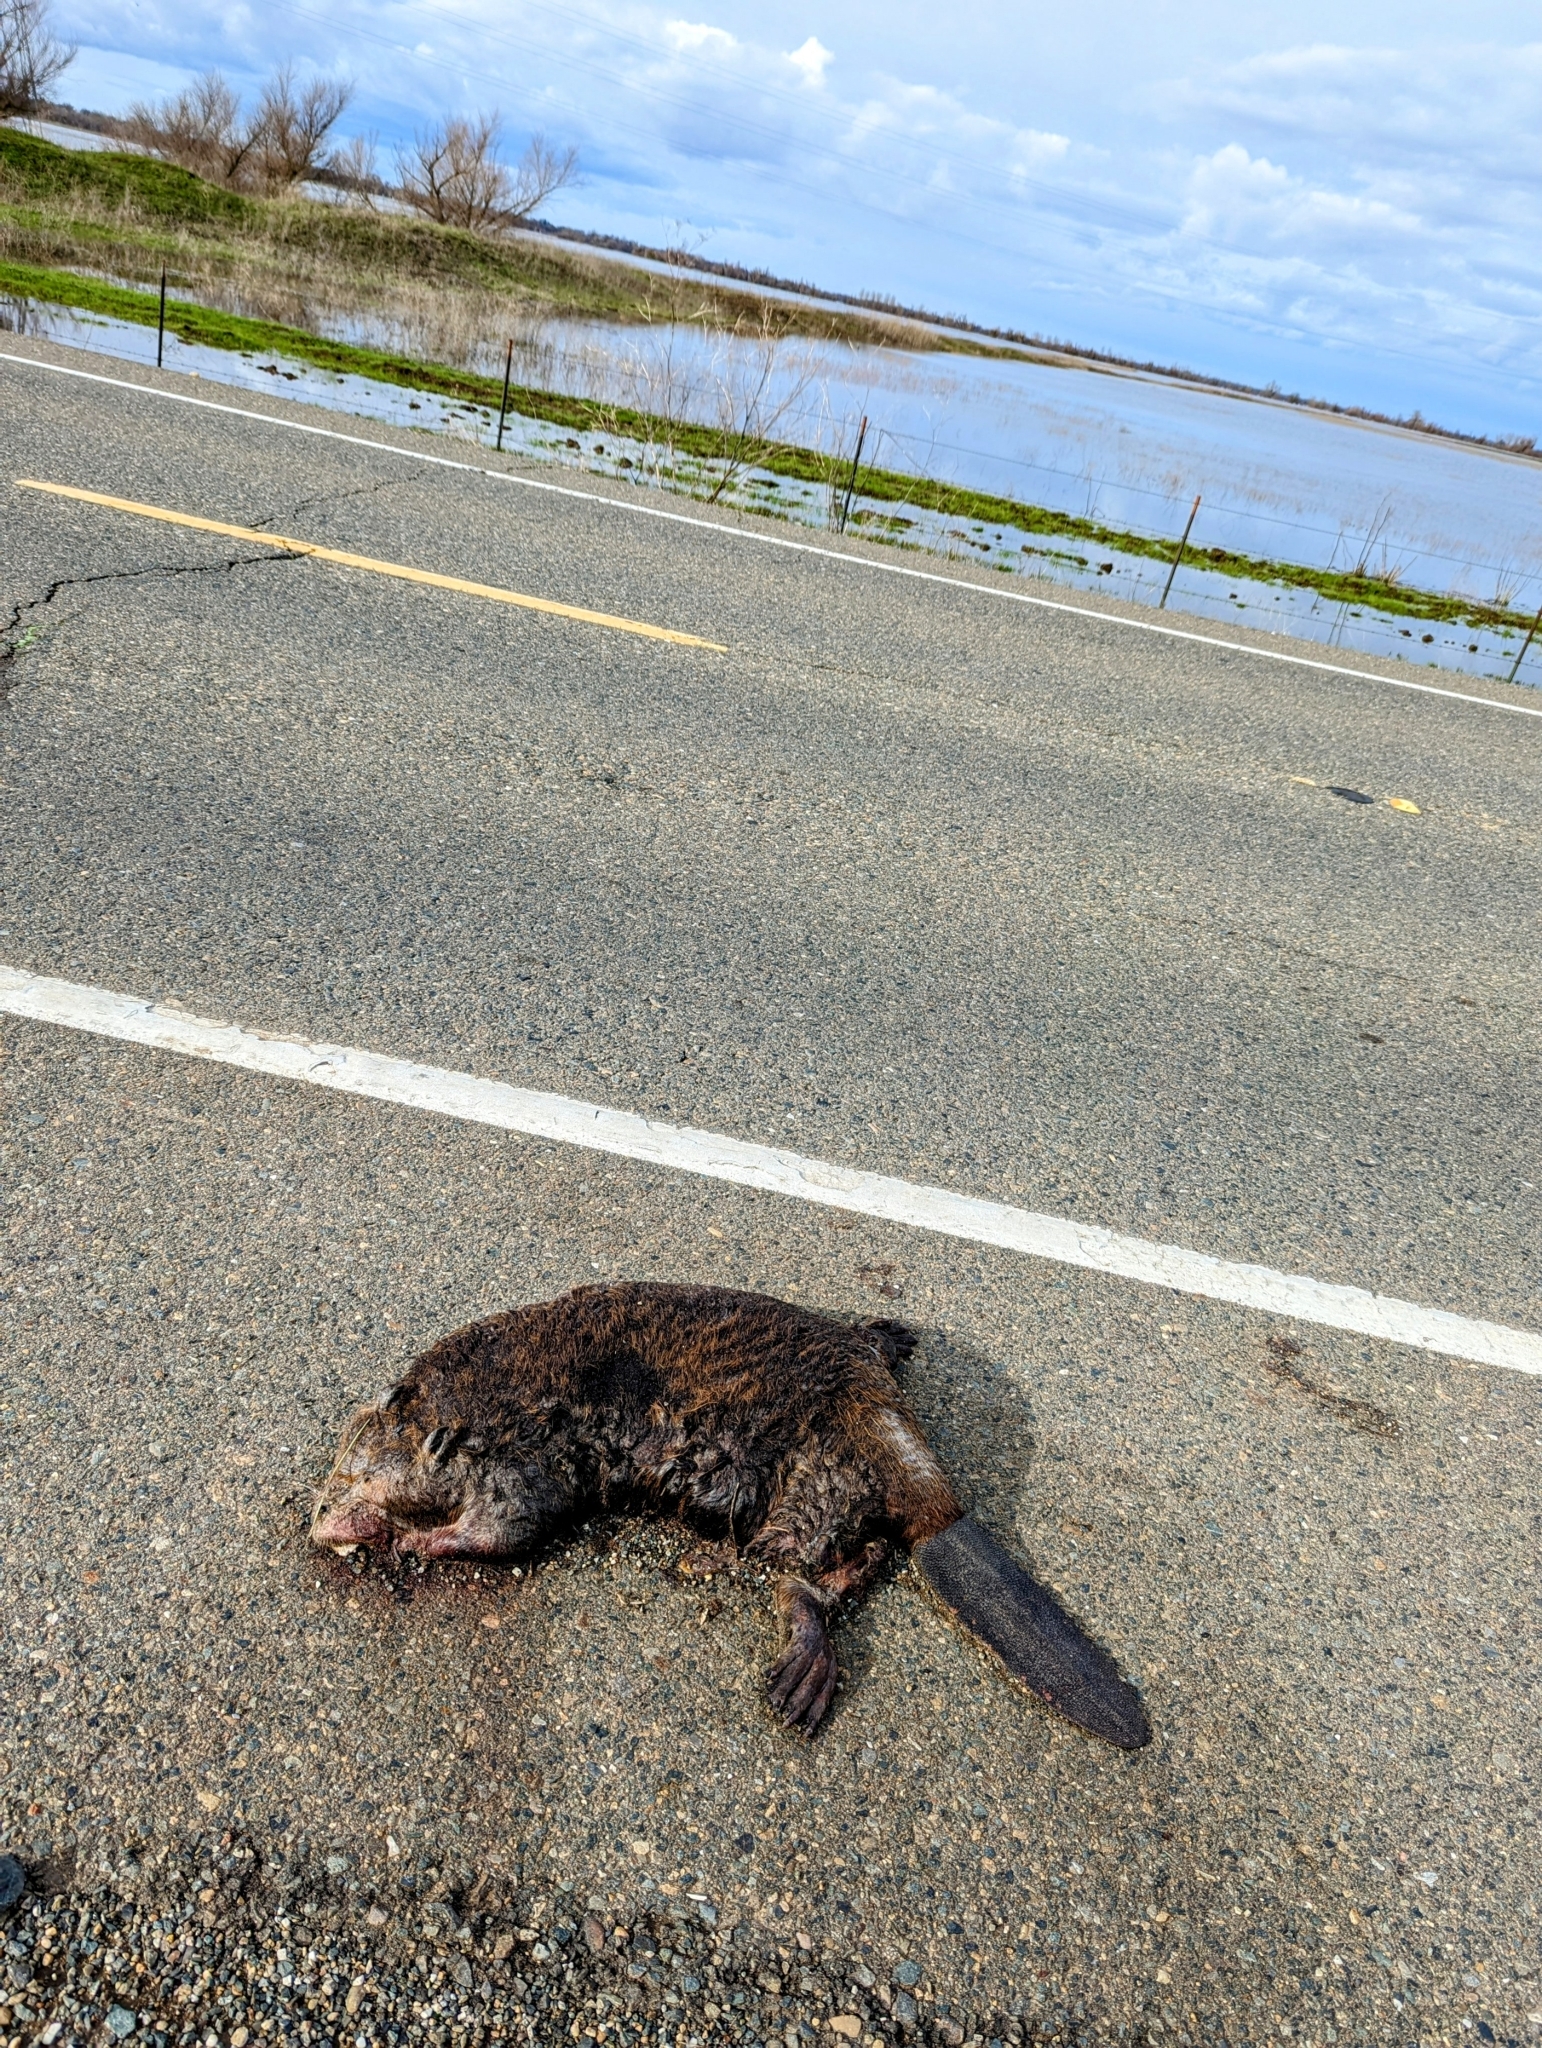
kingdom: Animalia
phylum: Chordata
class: Mammalia
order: Rodentia
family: Castoridae
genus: Castor
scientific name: Castor canadensis
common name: American beaver
